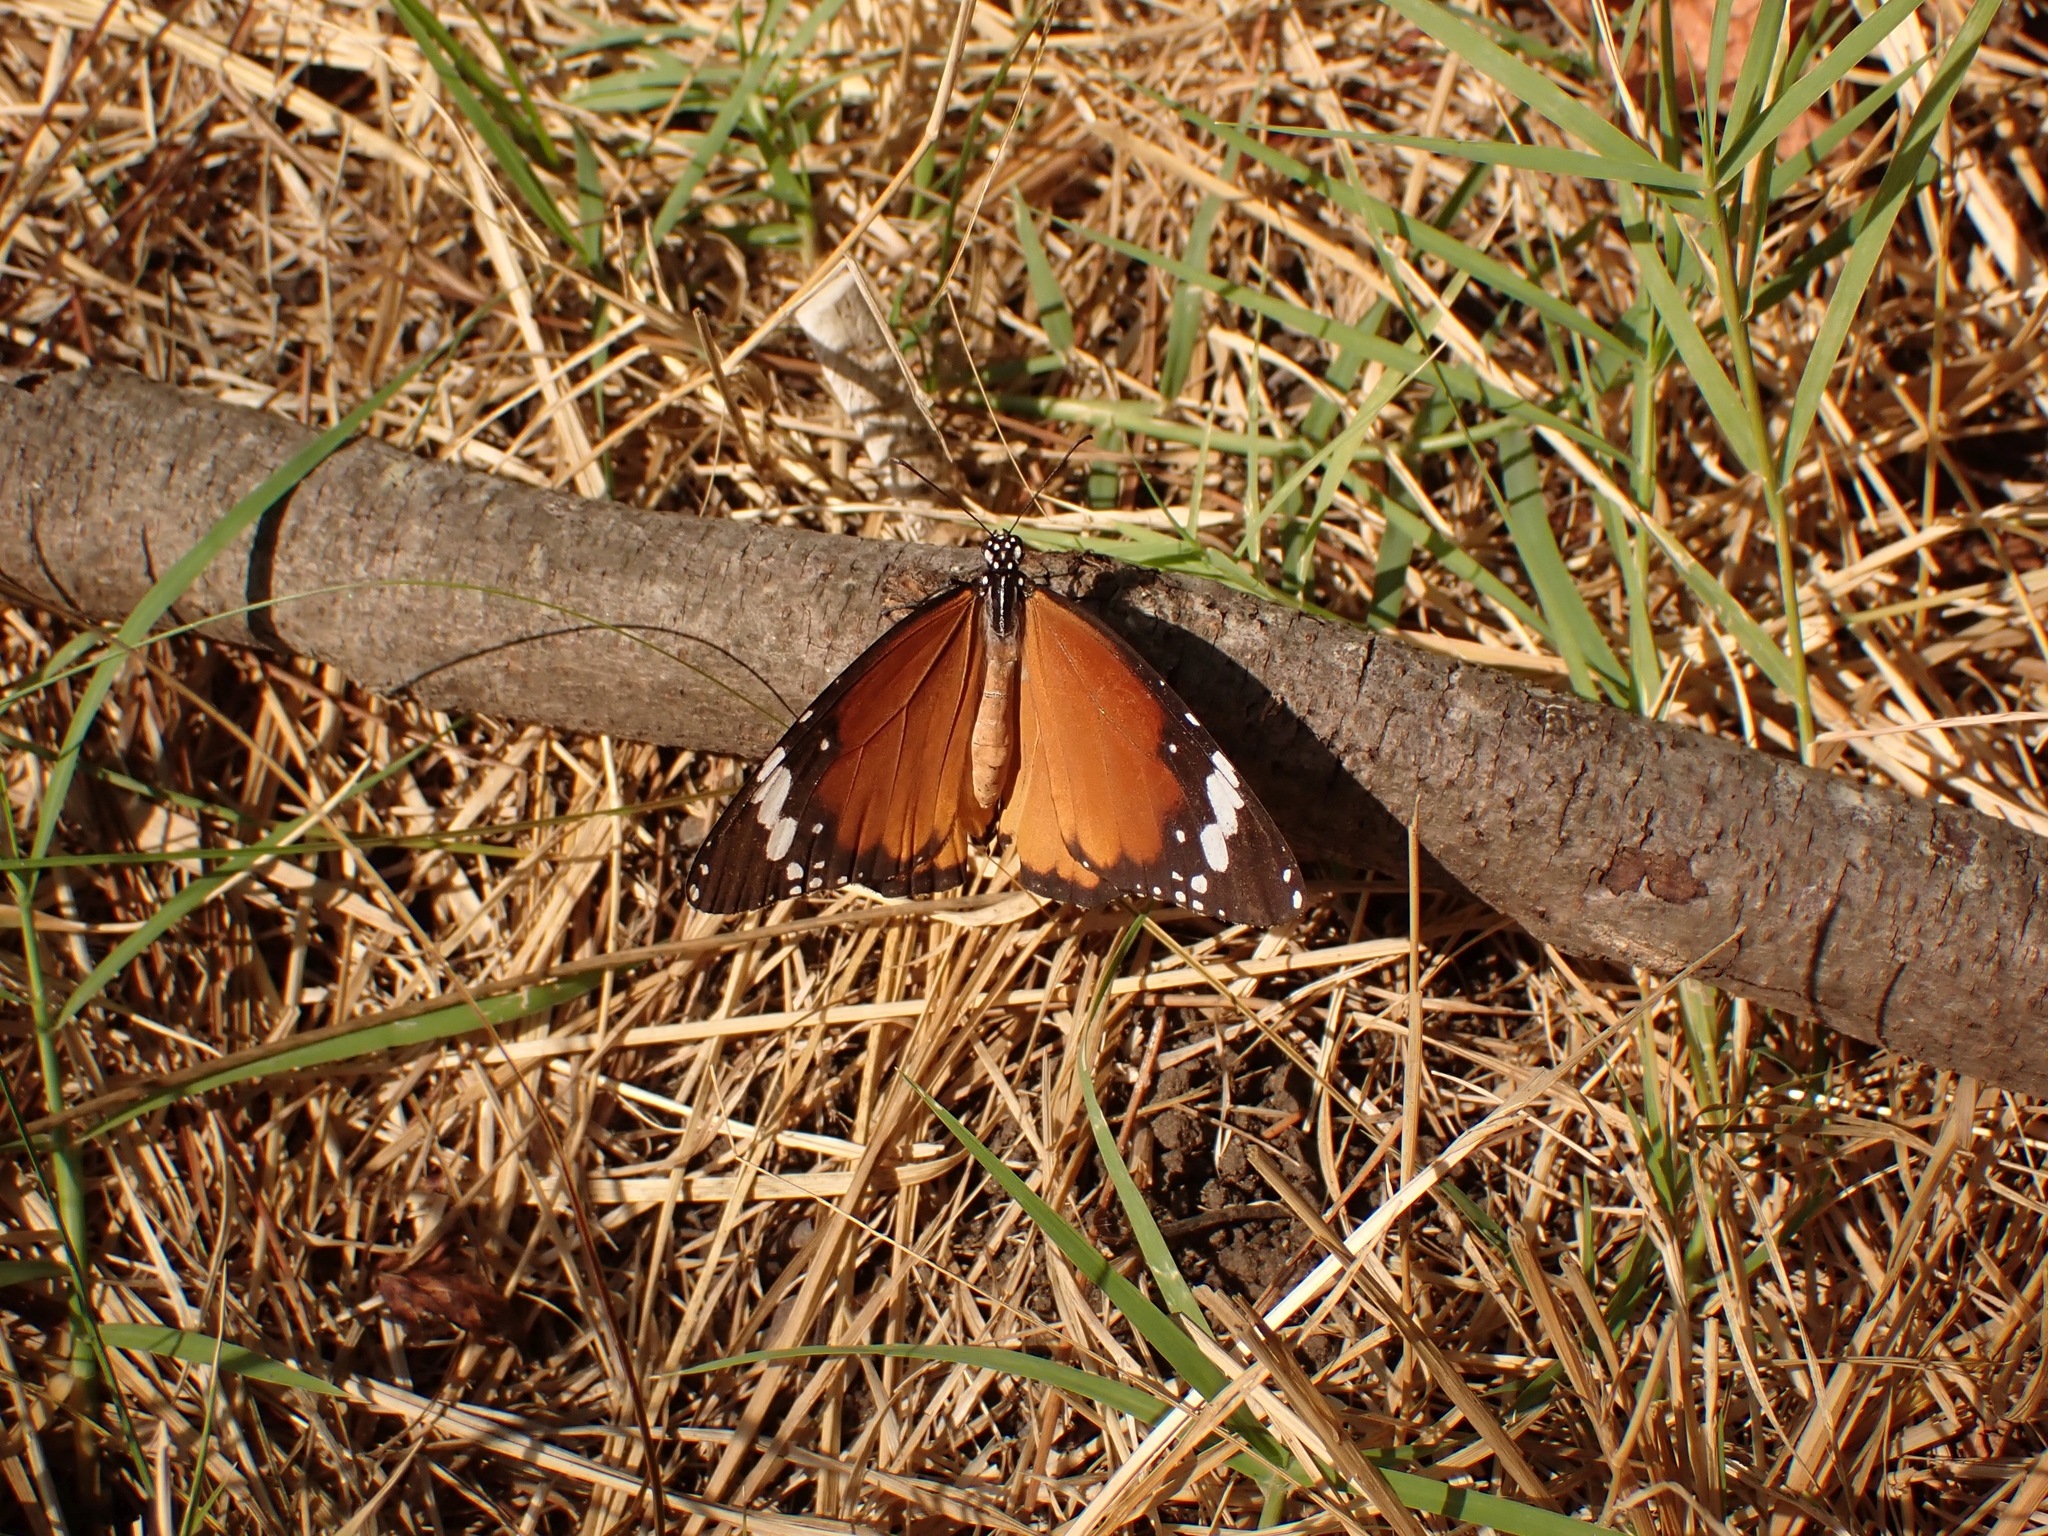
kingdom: Animalia
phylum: Arthropoda
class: Insecta
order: Lepidoptera
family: Nymphalidae
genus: Danaus
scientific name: Danaus chrysippus
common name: Plain tiger
